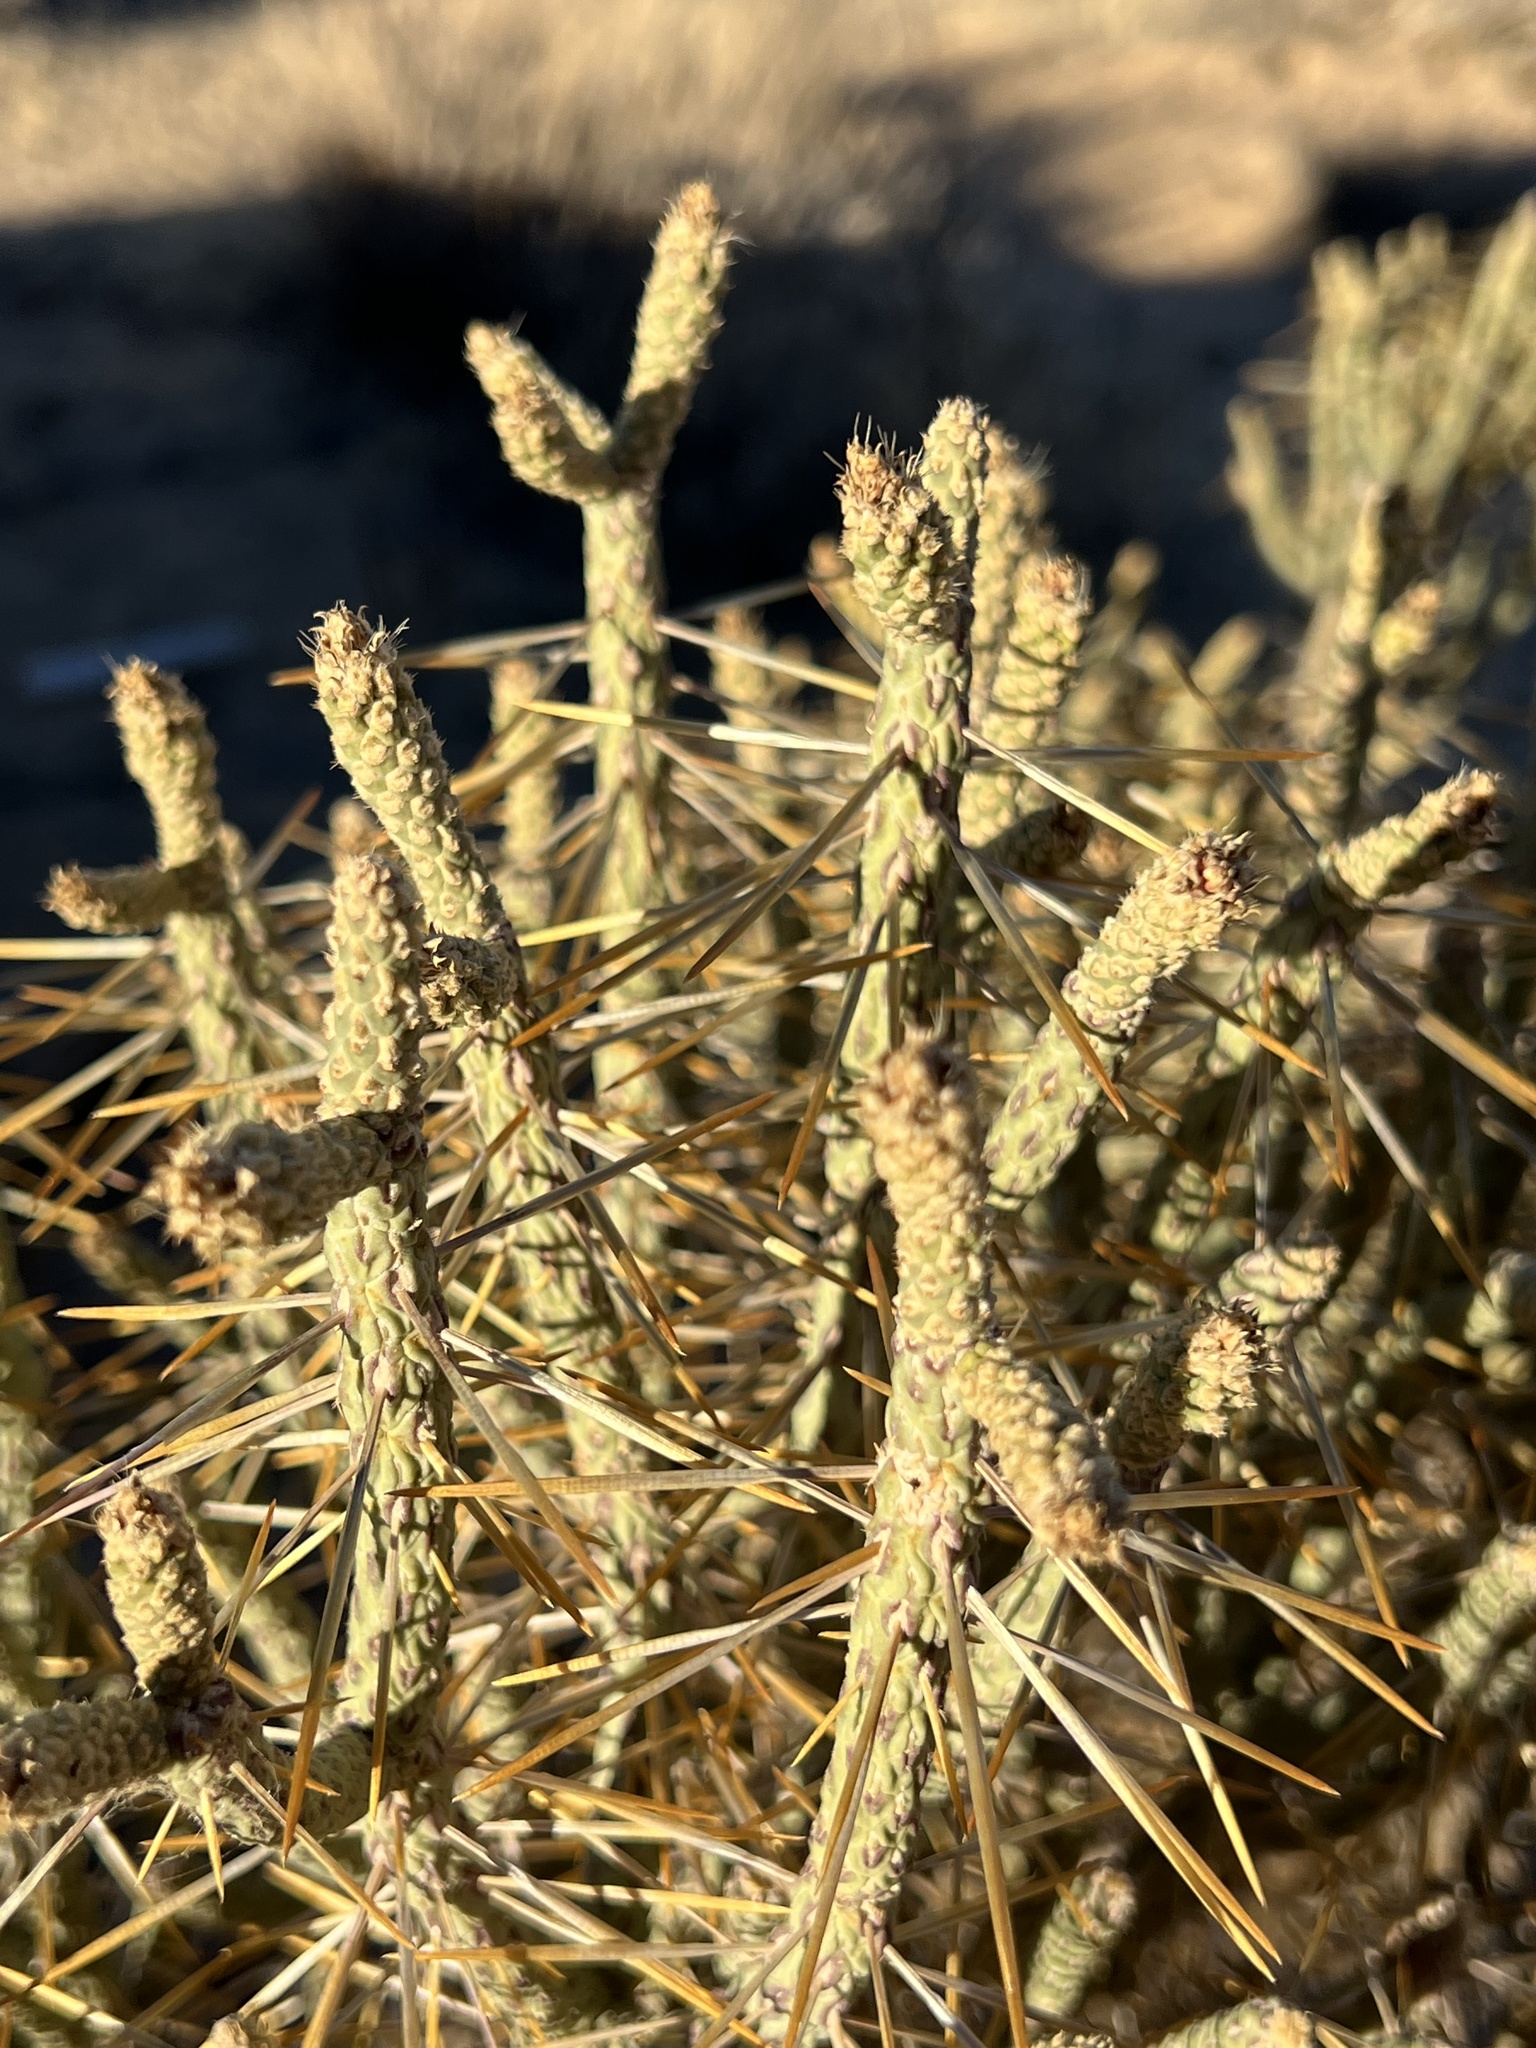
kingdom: Plantae
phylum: Tracheophyta
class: Magnoliopsida
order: Caryophyllales
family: Cactaceae
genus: Cylindropuntia
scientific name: Cylindropuntia ramosissima
